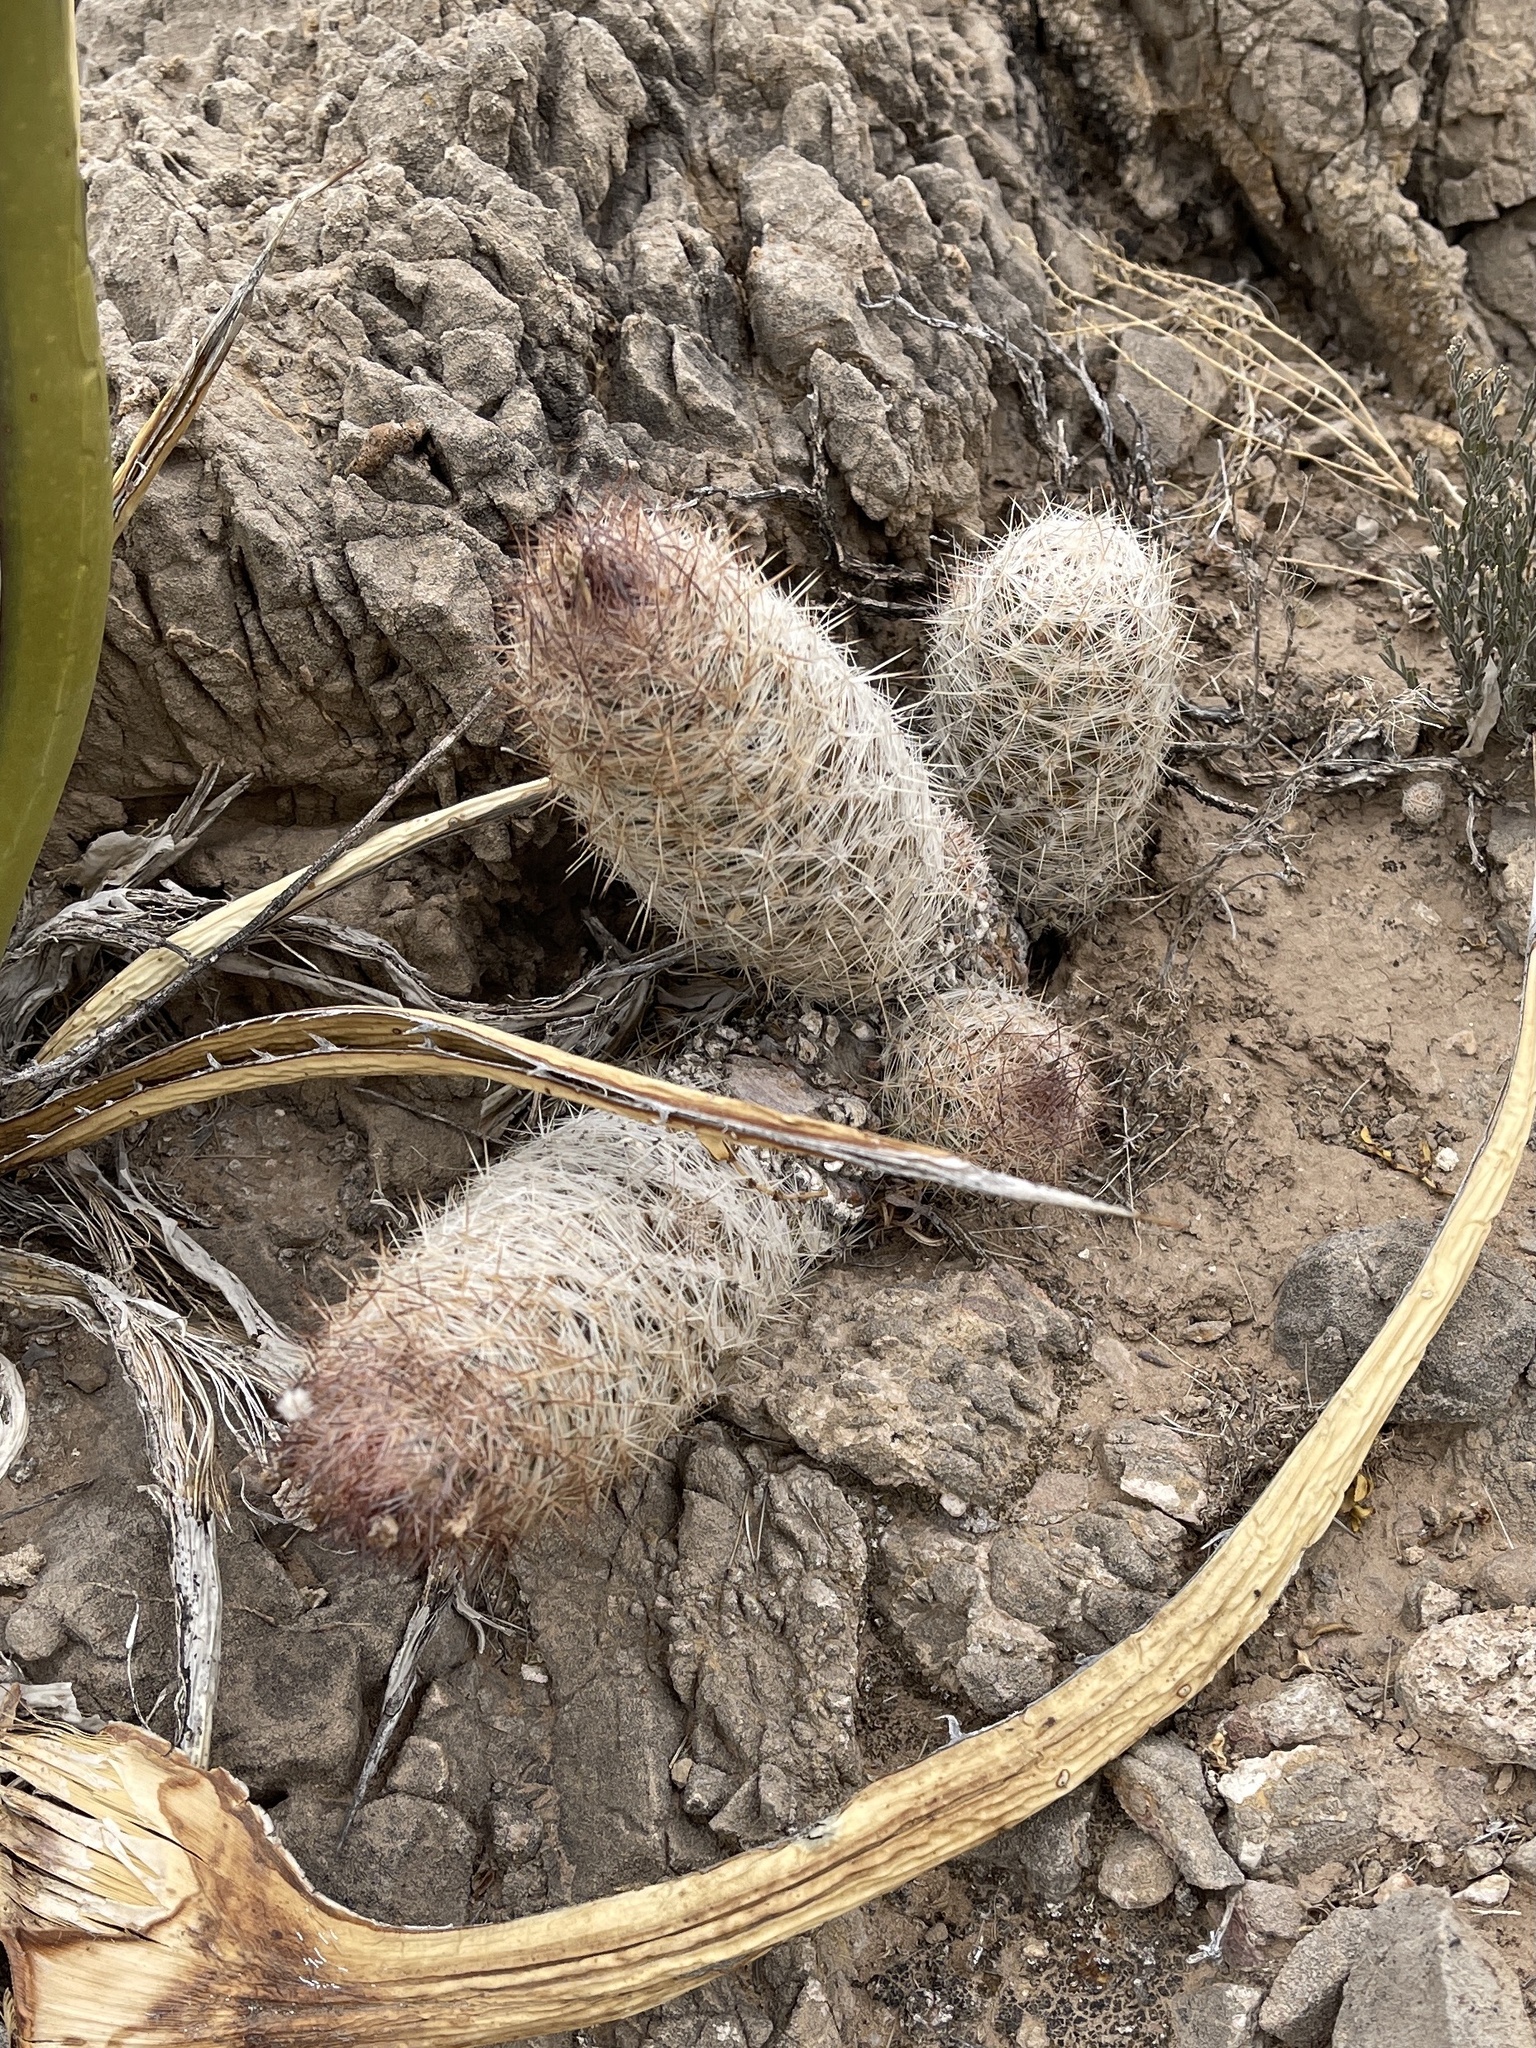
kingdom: Plantae
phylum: Tracheophyta
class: Magnoliopsida
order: Caryophyllales
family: Cactaceae
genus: Pelecyphora
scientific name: Pelecyphora tuberculosa
